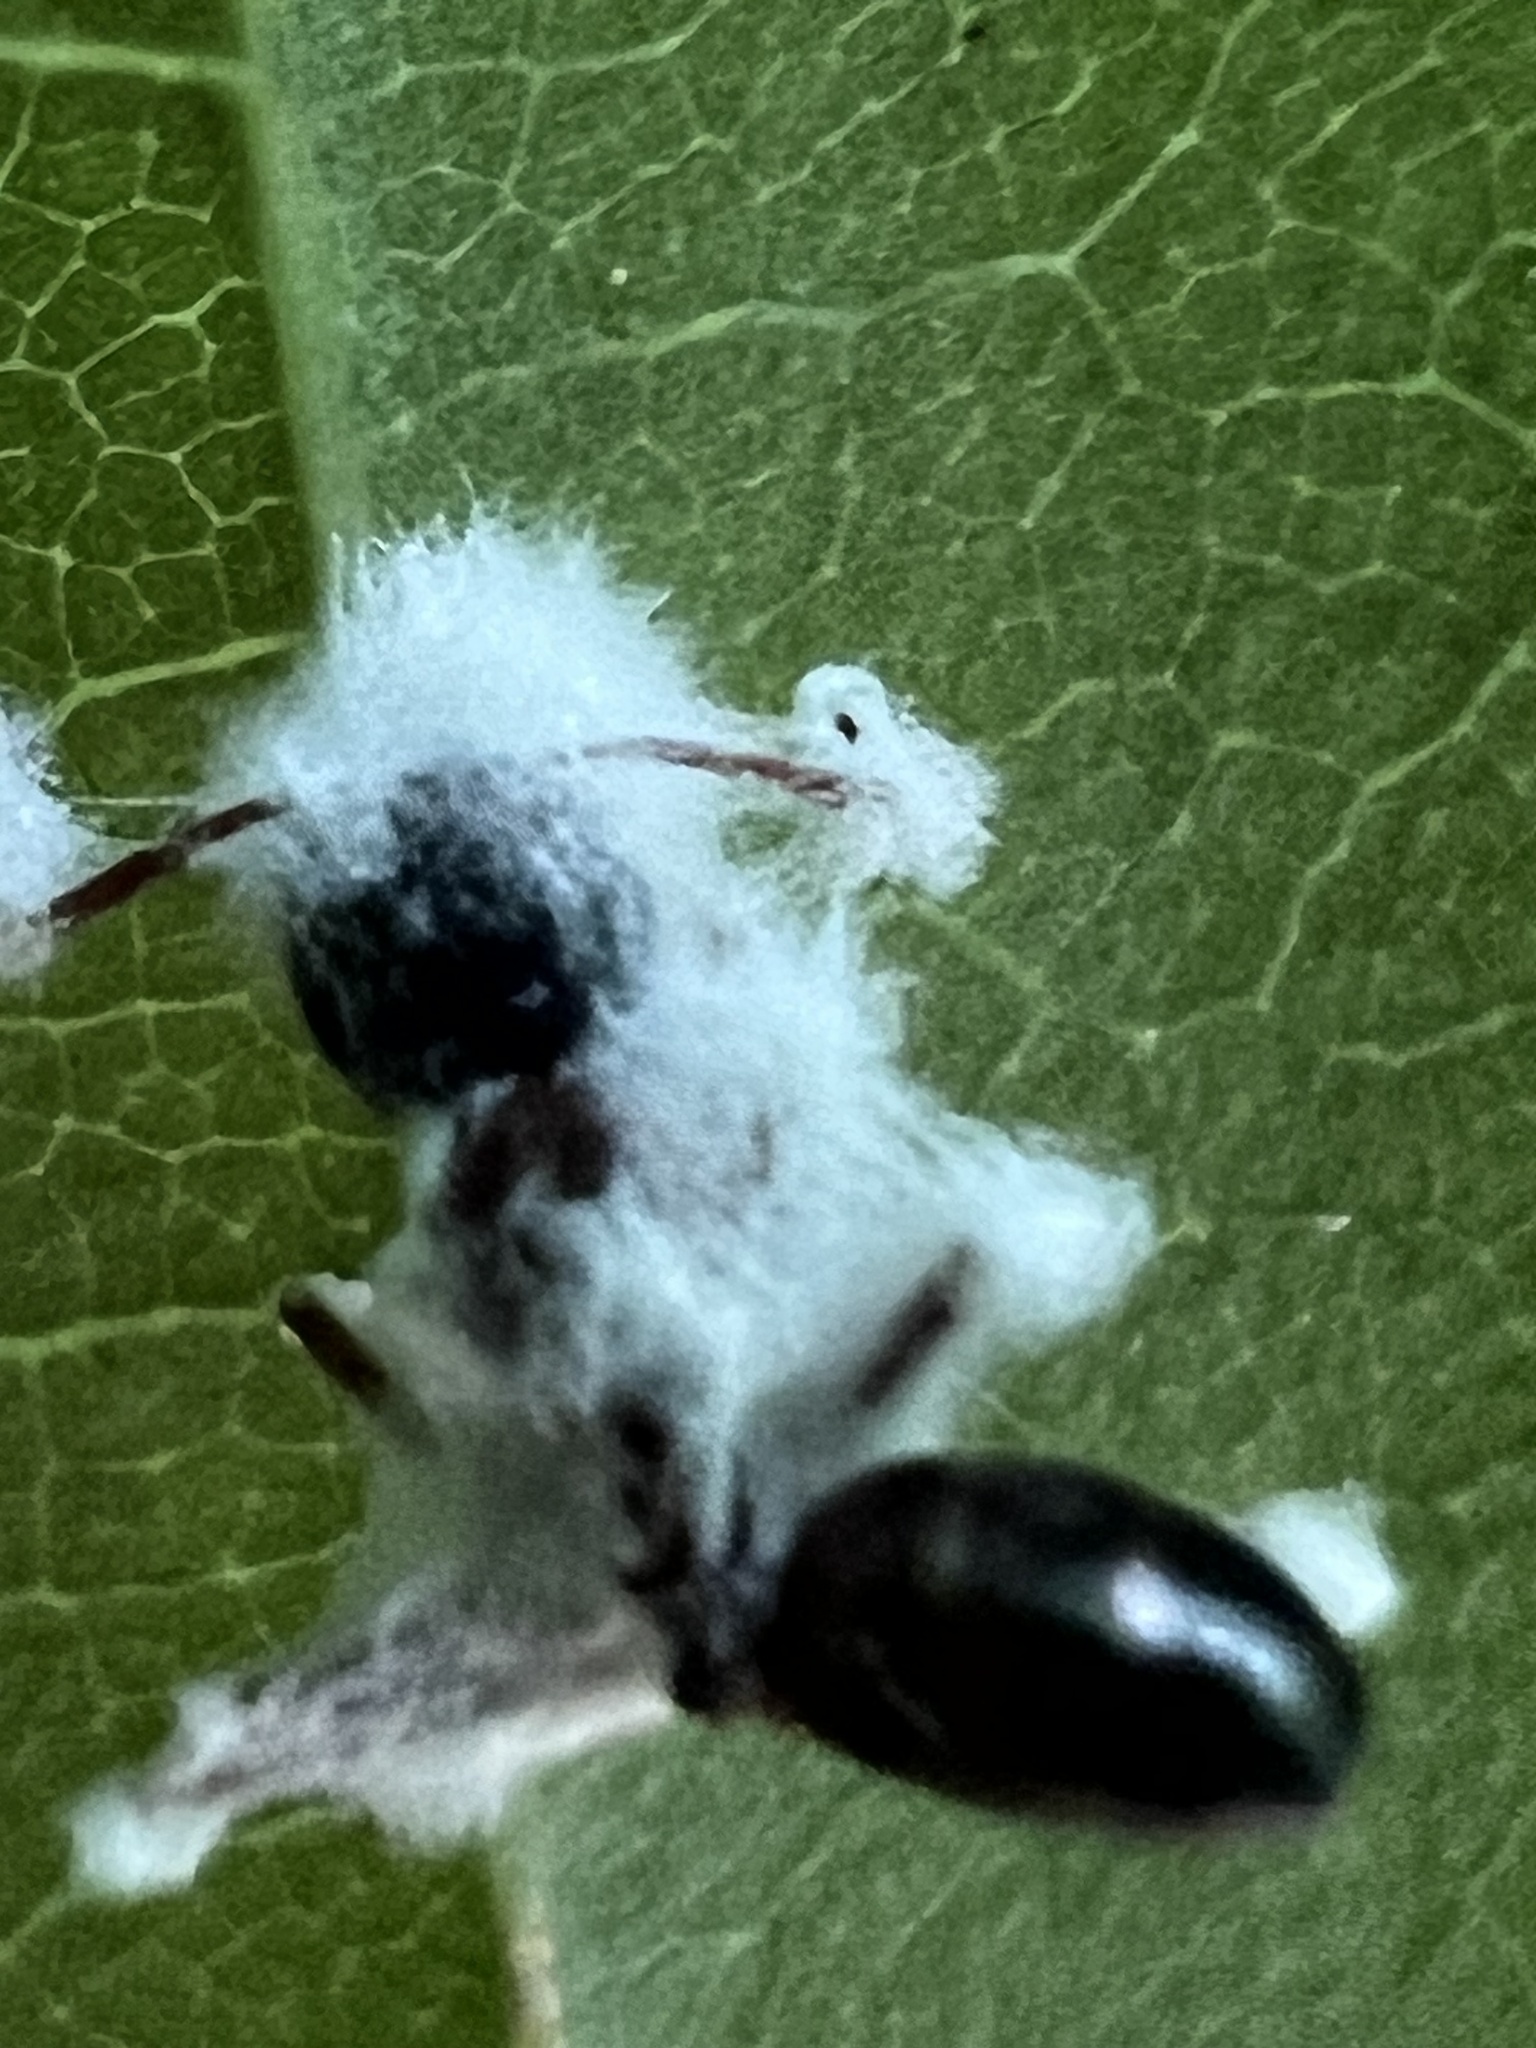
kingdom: Fungi
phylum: Ascomycota
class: Sordariomycetes
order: Hypocreales
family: Cordycipitaceae
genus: Beauveria
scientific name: Beauveria bassiana
